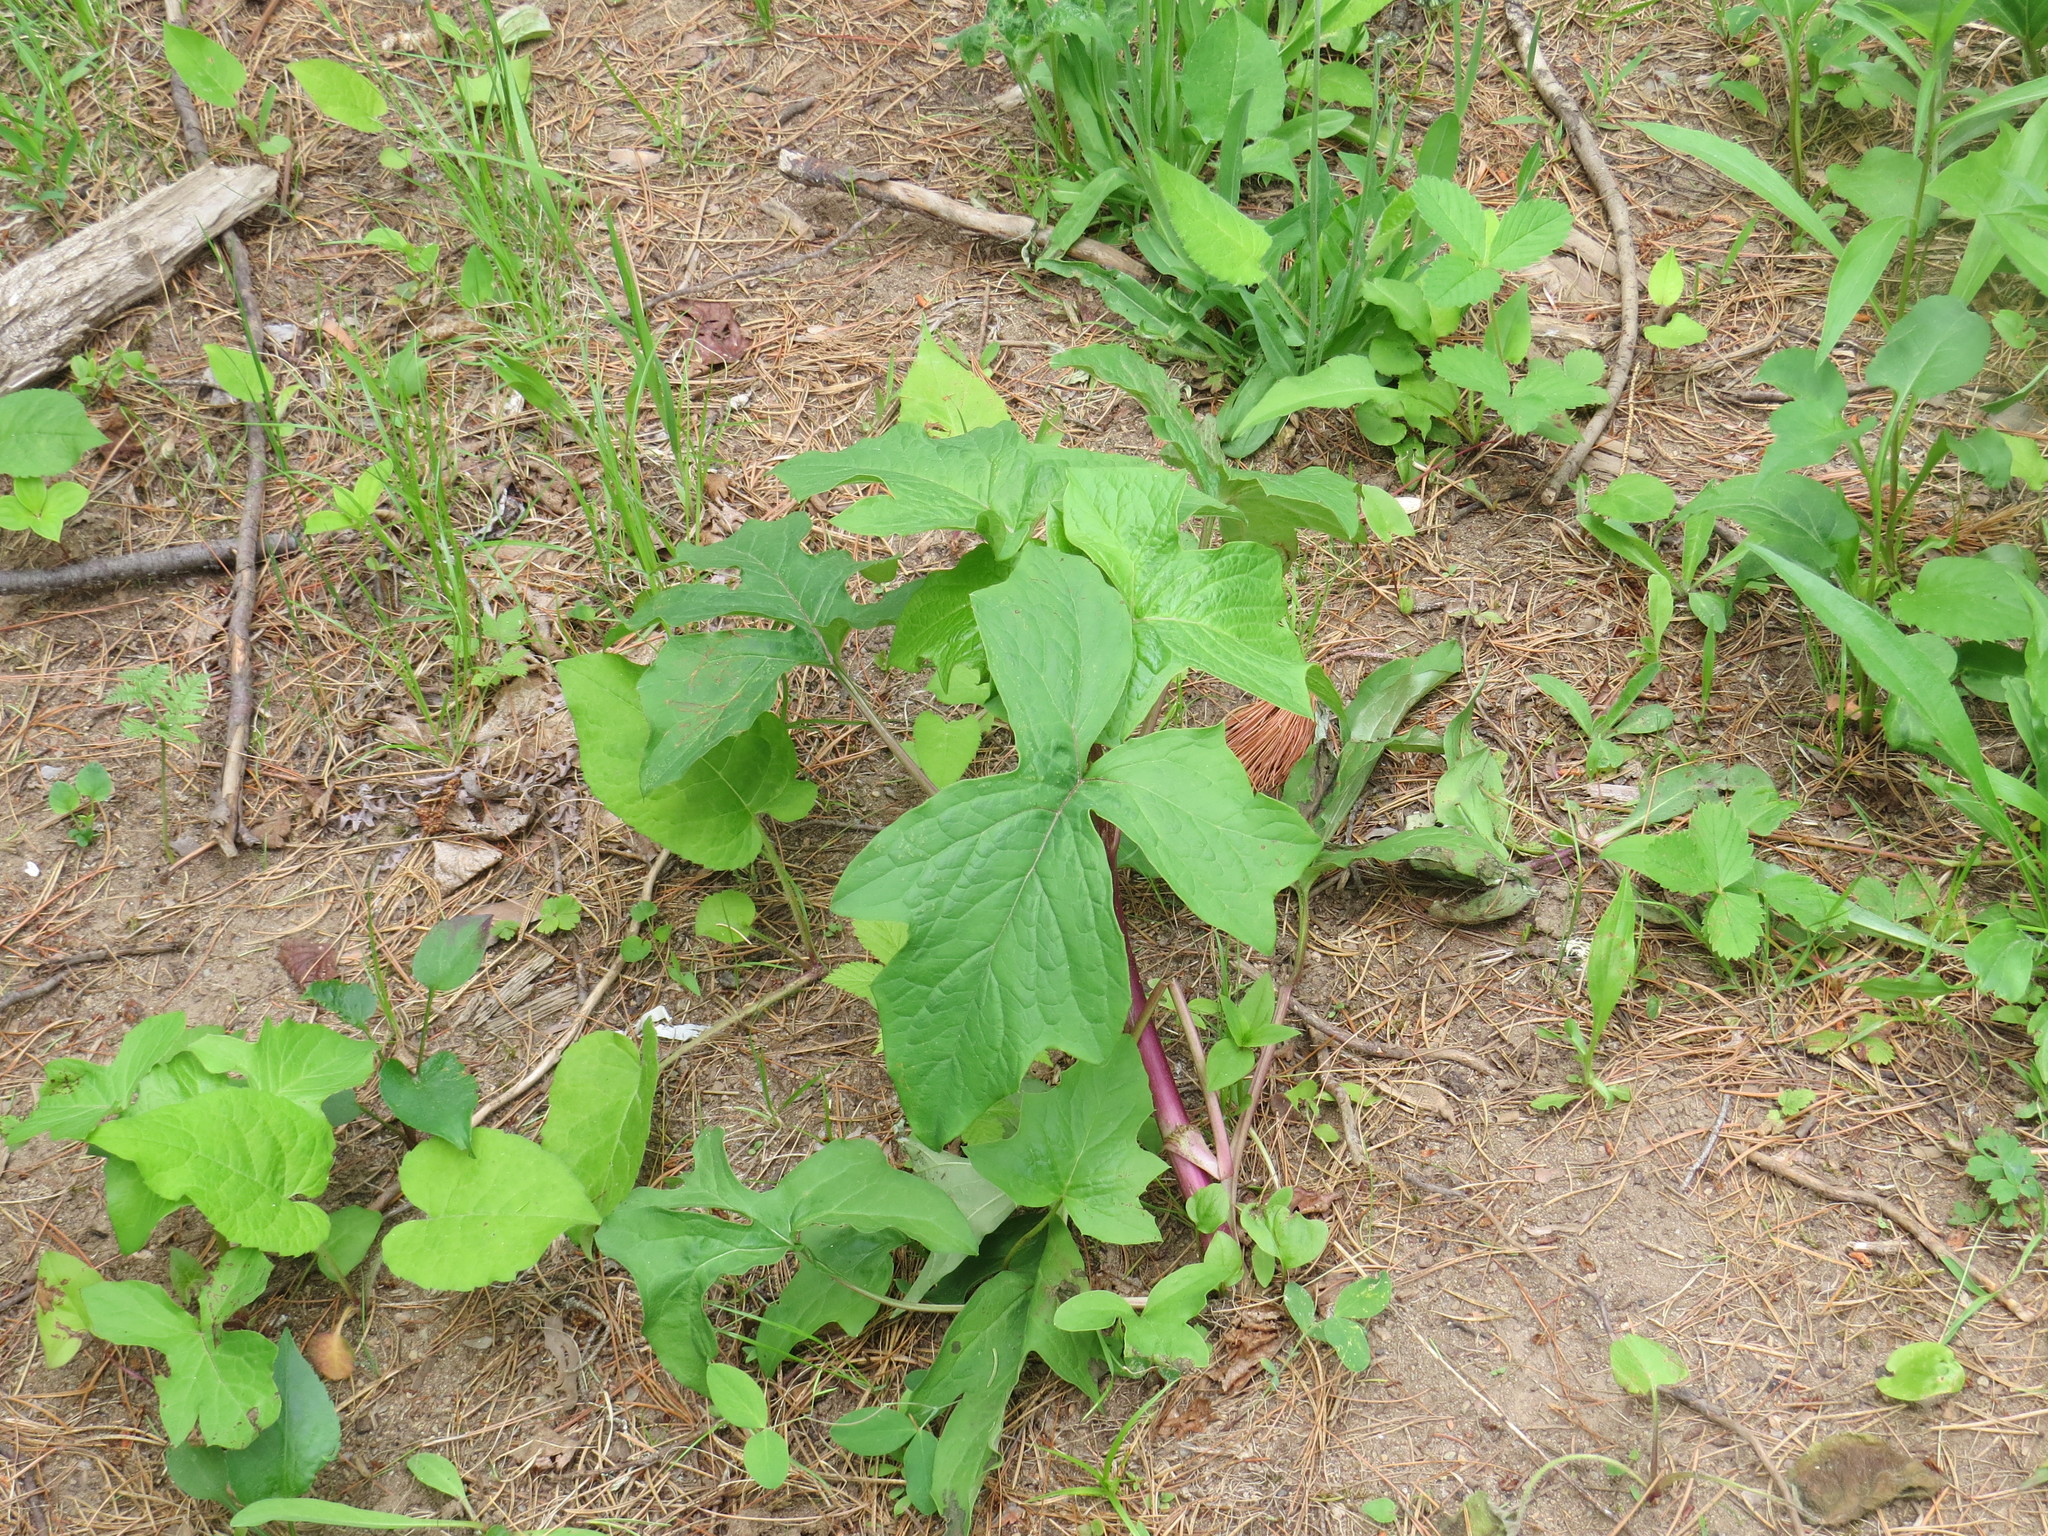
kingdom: Plantae
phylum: Tracheophyta
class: Magnoliopsida
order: Asterales
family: Asteraceae
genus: Nabalus
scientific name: Nabalus albus
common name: White rattlesnakeroot
